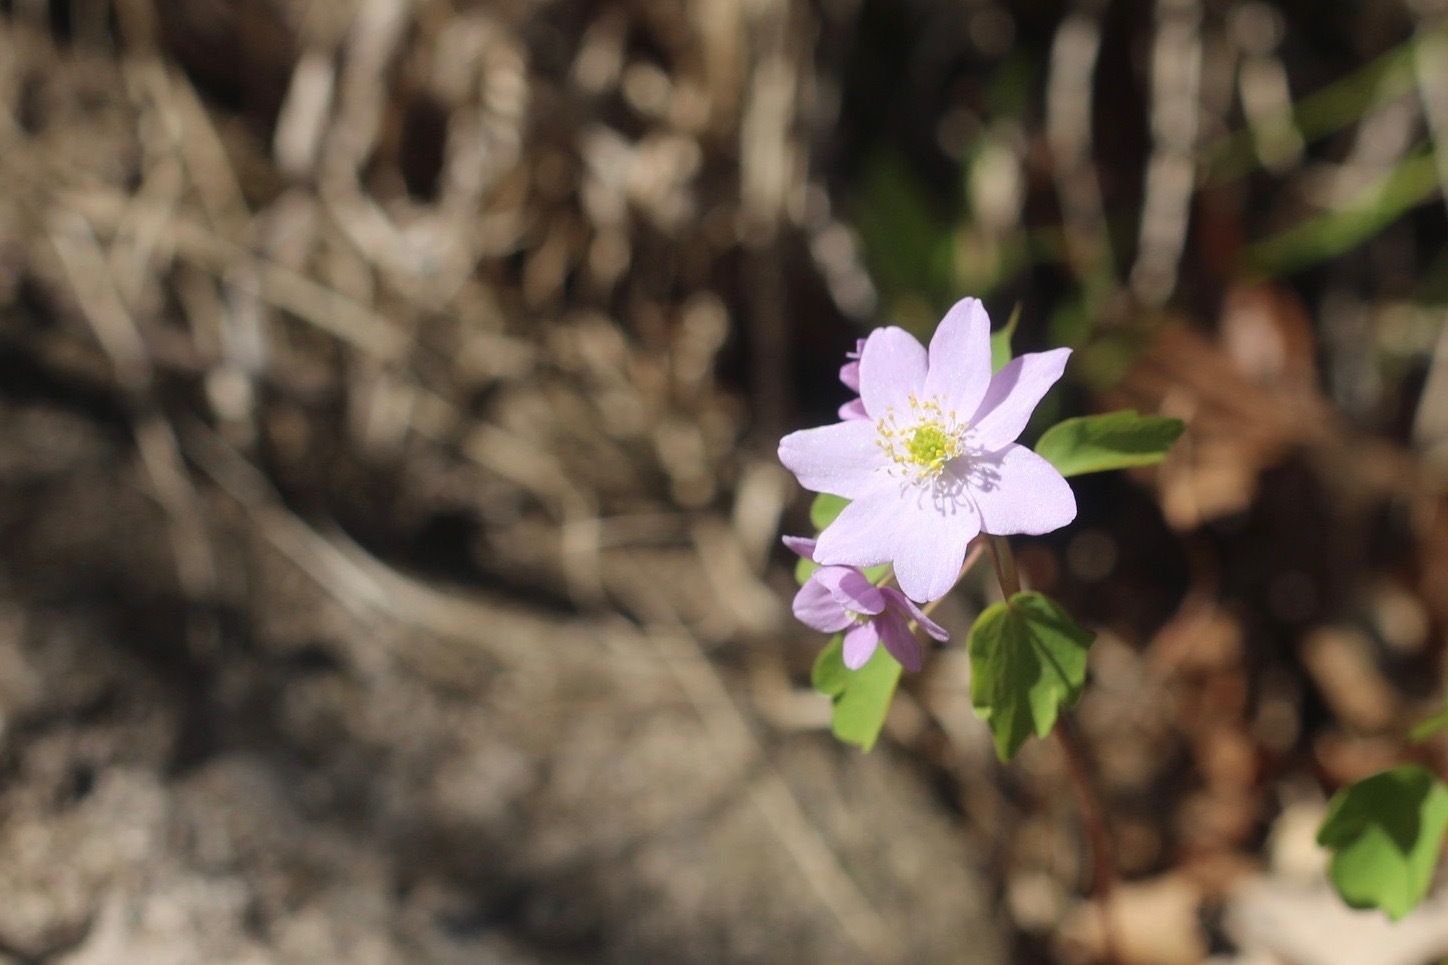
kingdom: Plantae
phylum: Tracheophyta
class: Magnoliopsida
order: Ranunculales
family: Ranunculaceae
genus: Thalictrum
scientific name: Thalictrum thalictroides
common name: Rue-anemone
